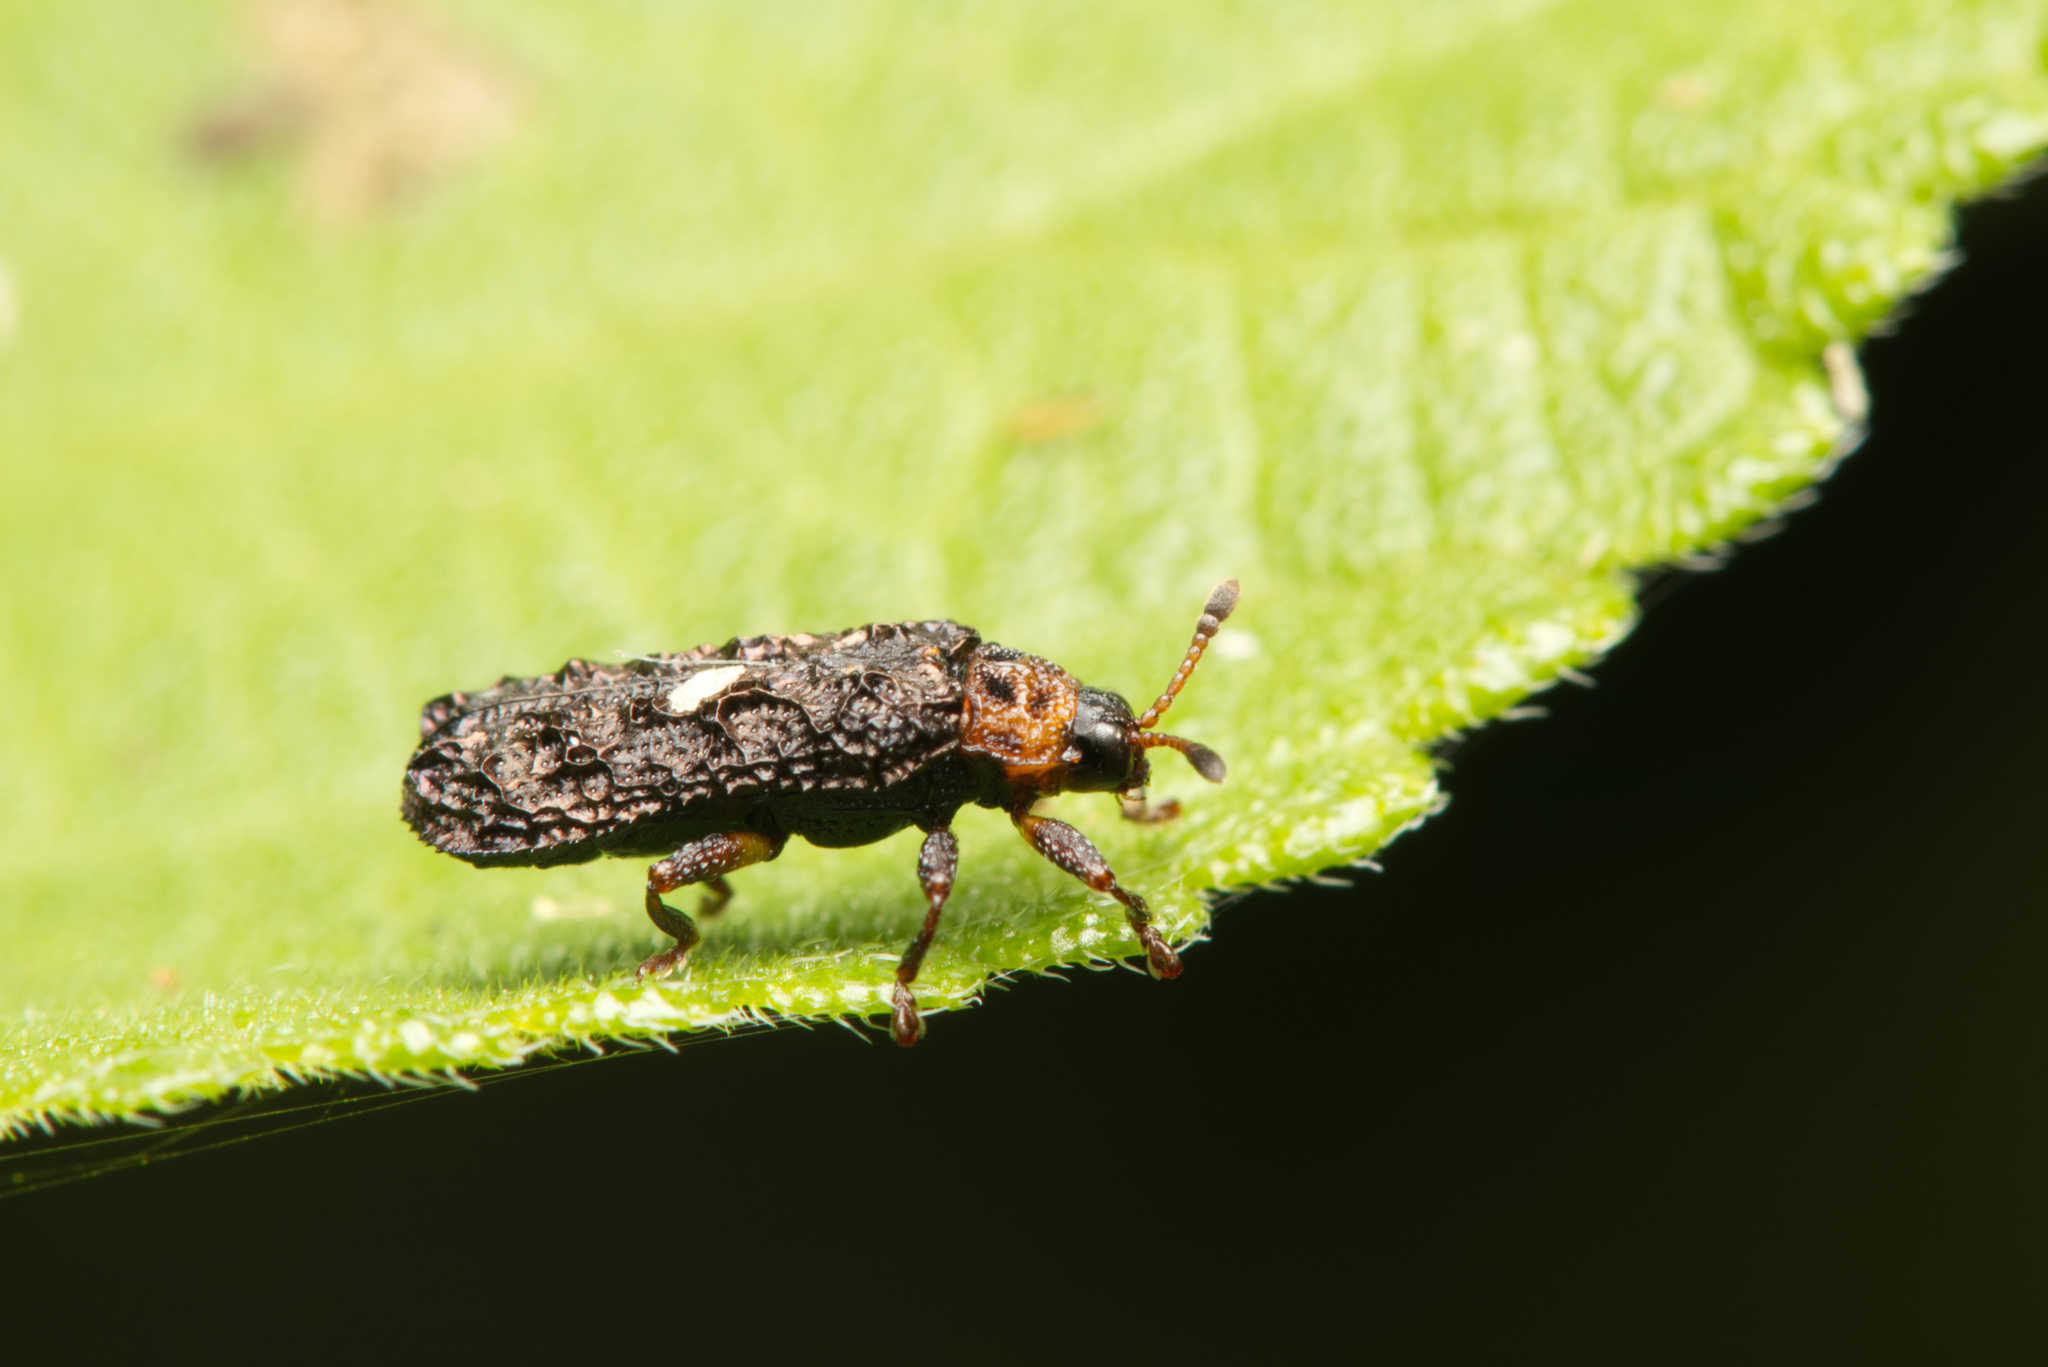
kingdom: Animalia
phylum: Arthropoda
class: Insecta
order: Coleoptera
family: Chrysomelidae
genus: Octotoma
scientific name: Octotoma scabripennis
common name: Beetle
